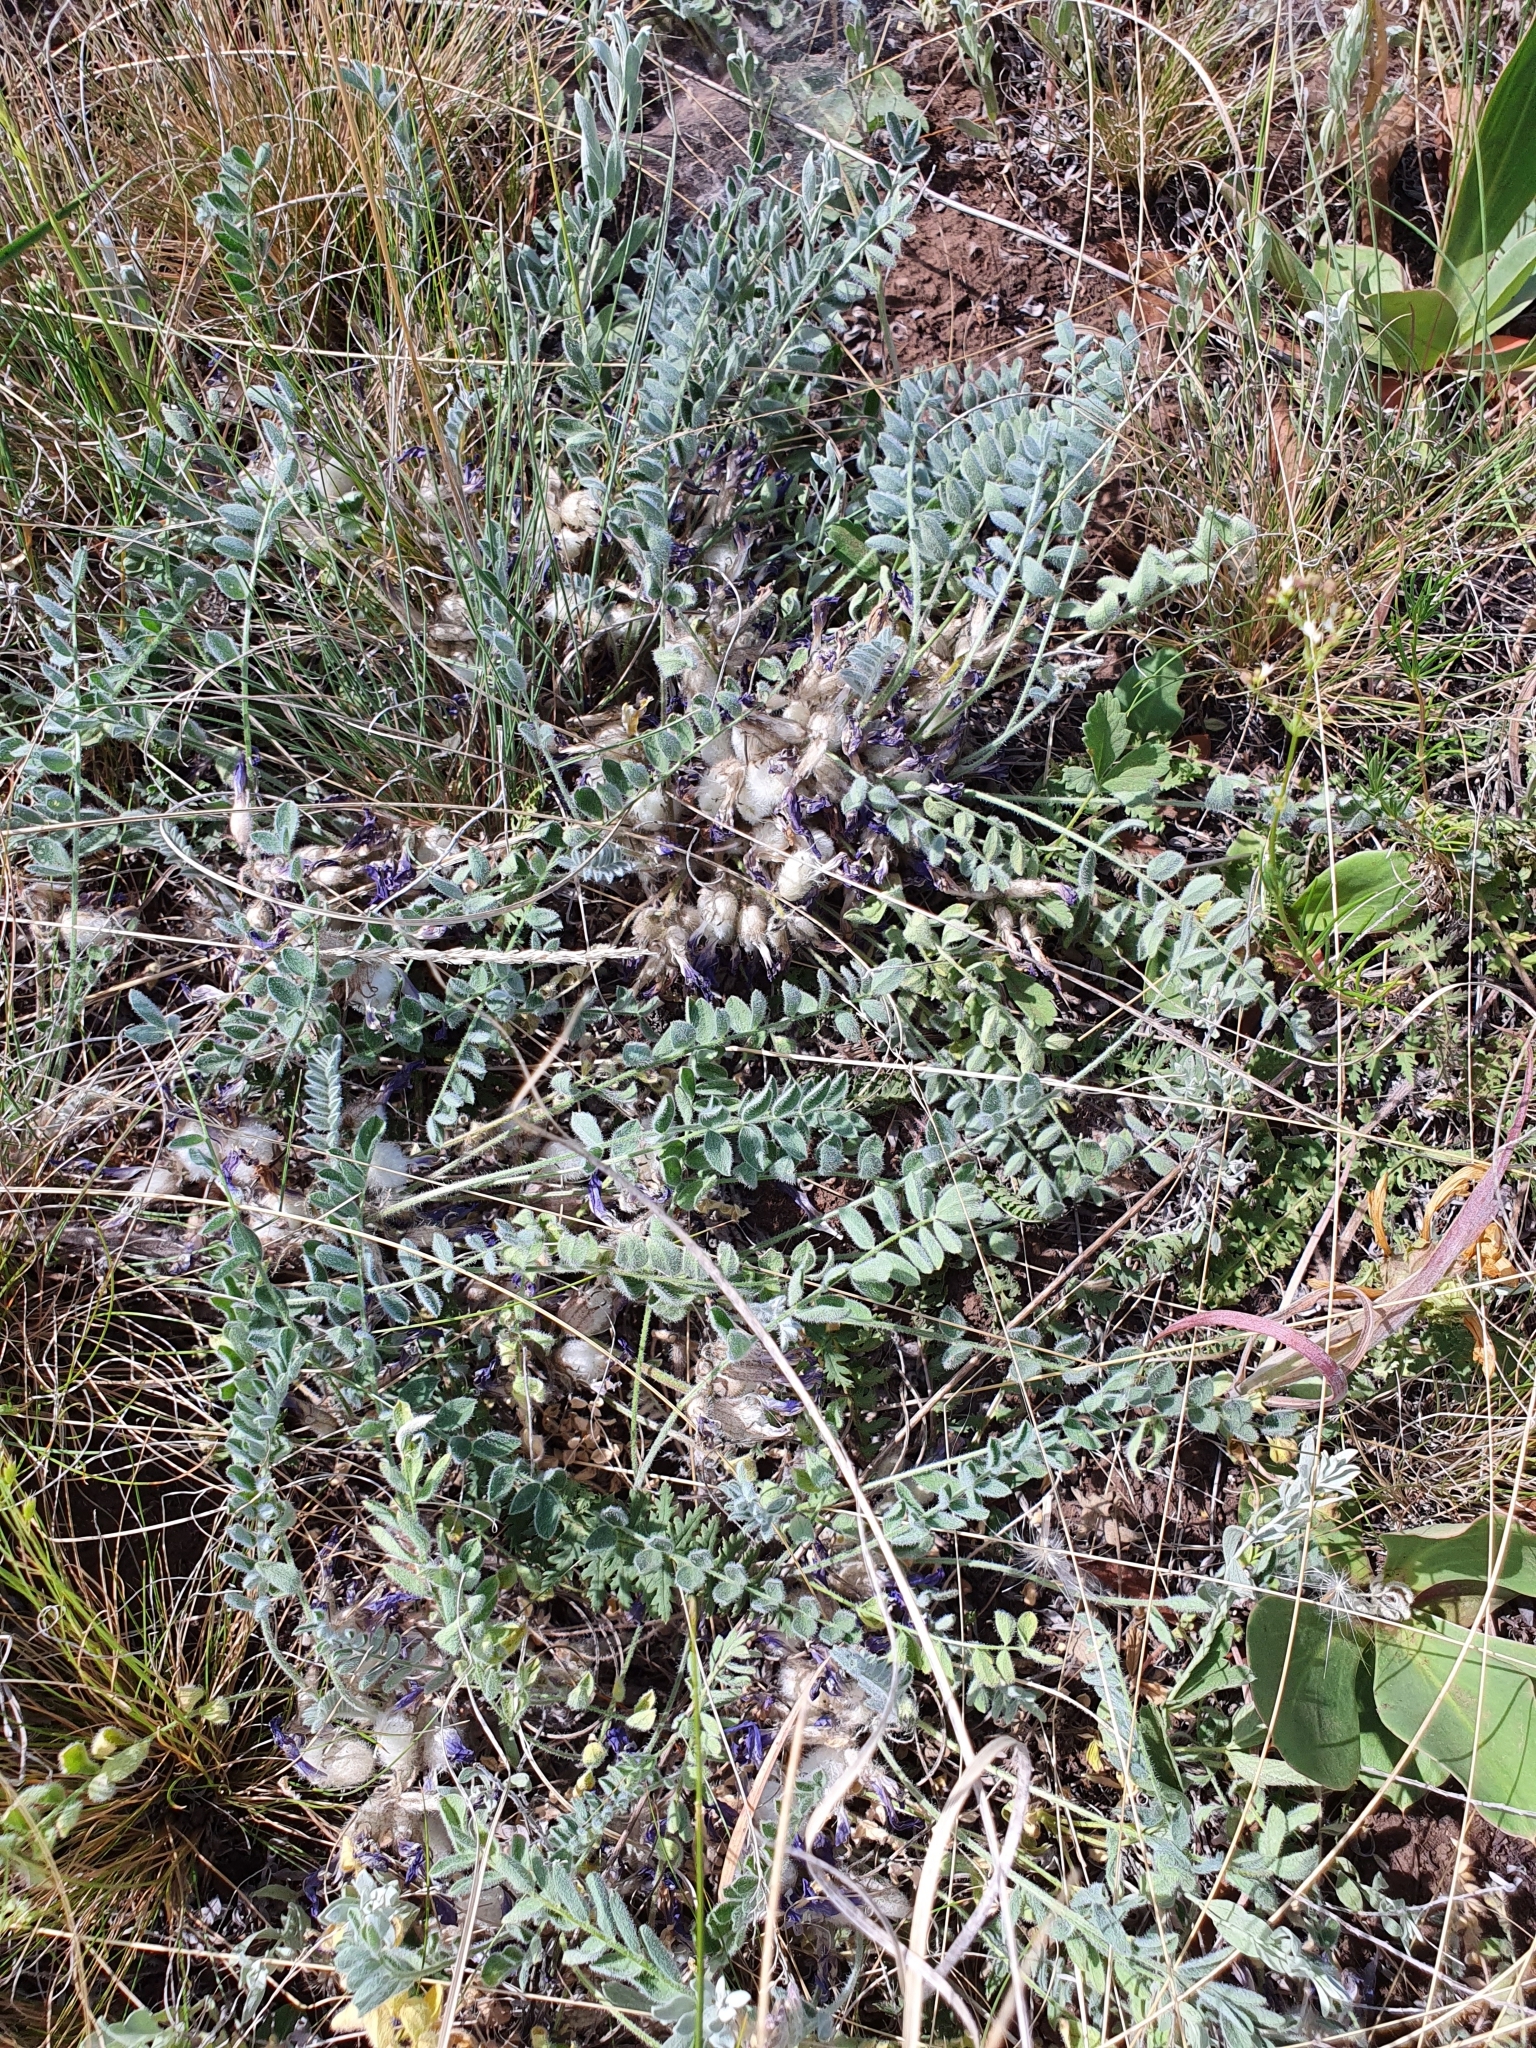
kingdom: Plantae
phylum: Tracheophyta
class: Magnoliopsida
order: Fabales
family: Fabaceae
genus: Astragalus
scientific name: Astragalus testiculatus
